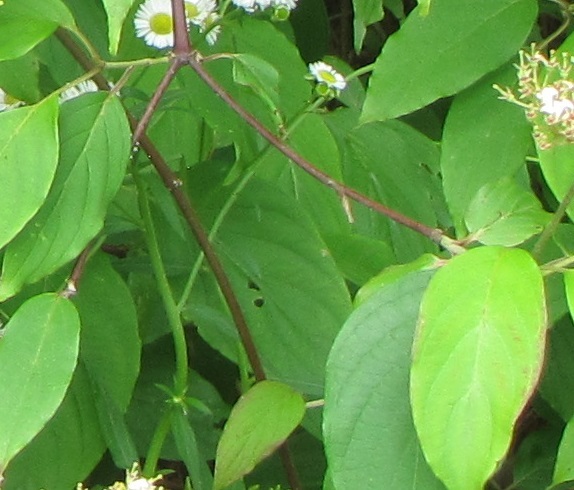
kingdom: Plantae
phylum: Tracheophyta
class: Magnoliopsida
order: Cornales
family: Cornaceae
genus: Cornus
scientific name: Cornus sericea
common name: Red-osier dogwood
